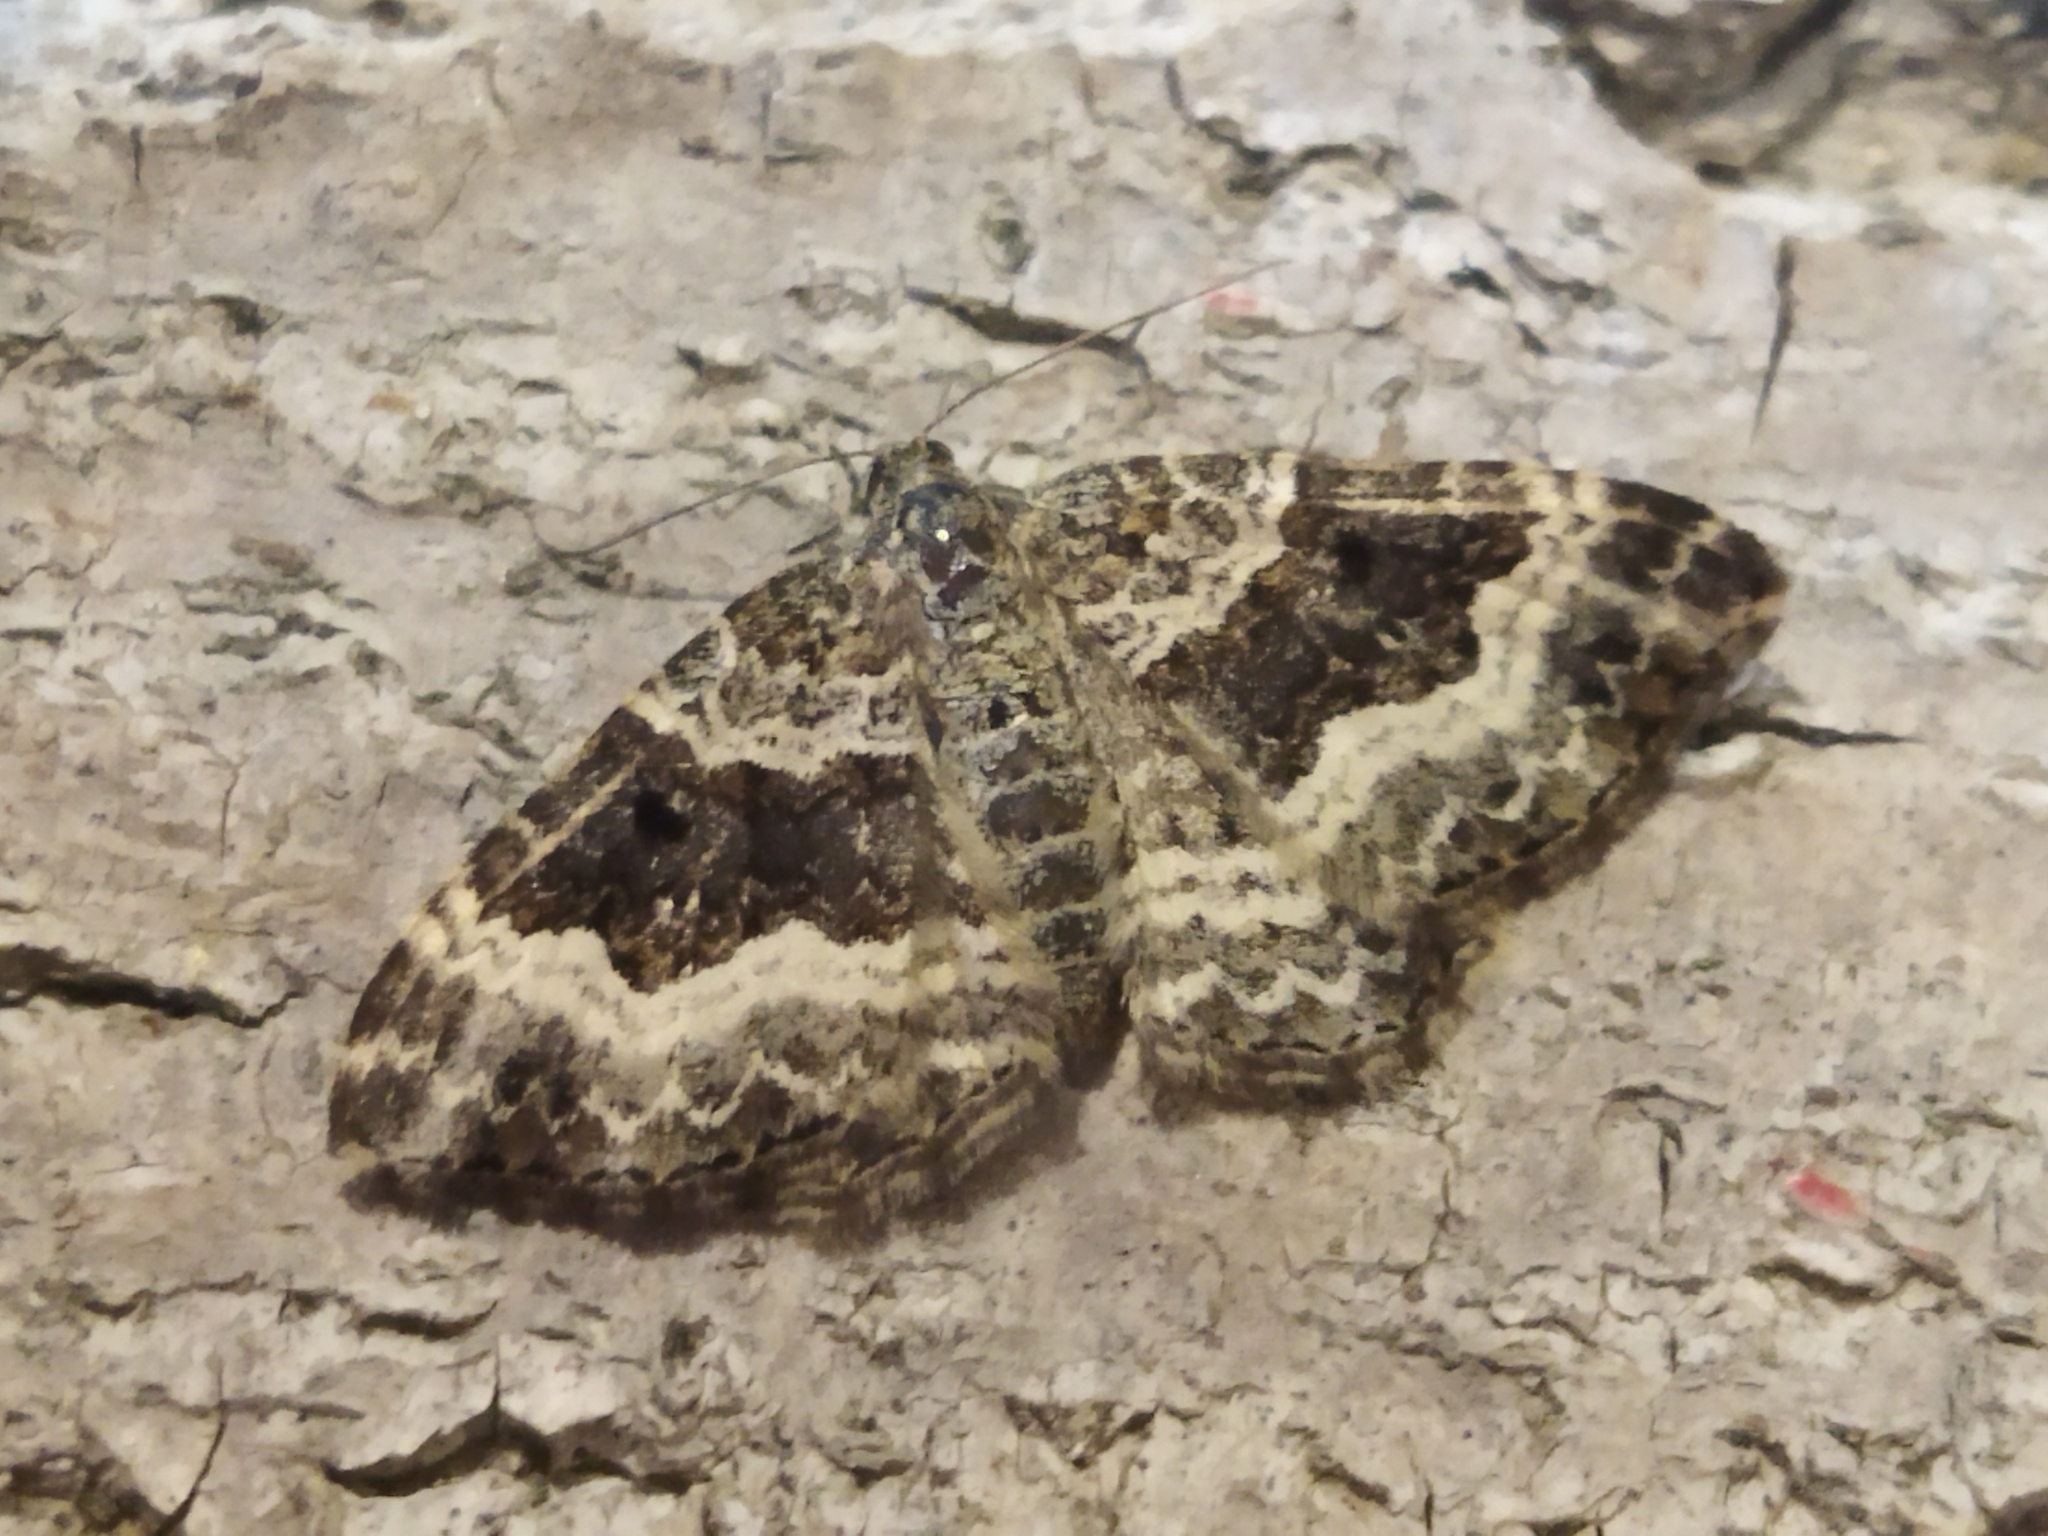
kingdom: Animalia
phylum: Arthropoda
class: Insecta
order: Lepidoptera
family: Geometridae
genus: Epirrhoe
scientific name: Epirrhoe alternata
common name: Common carpet
